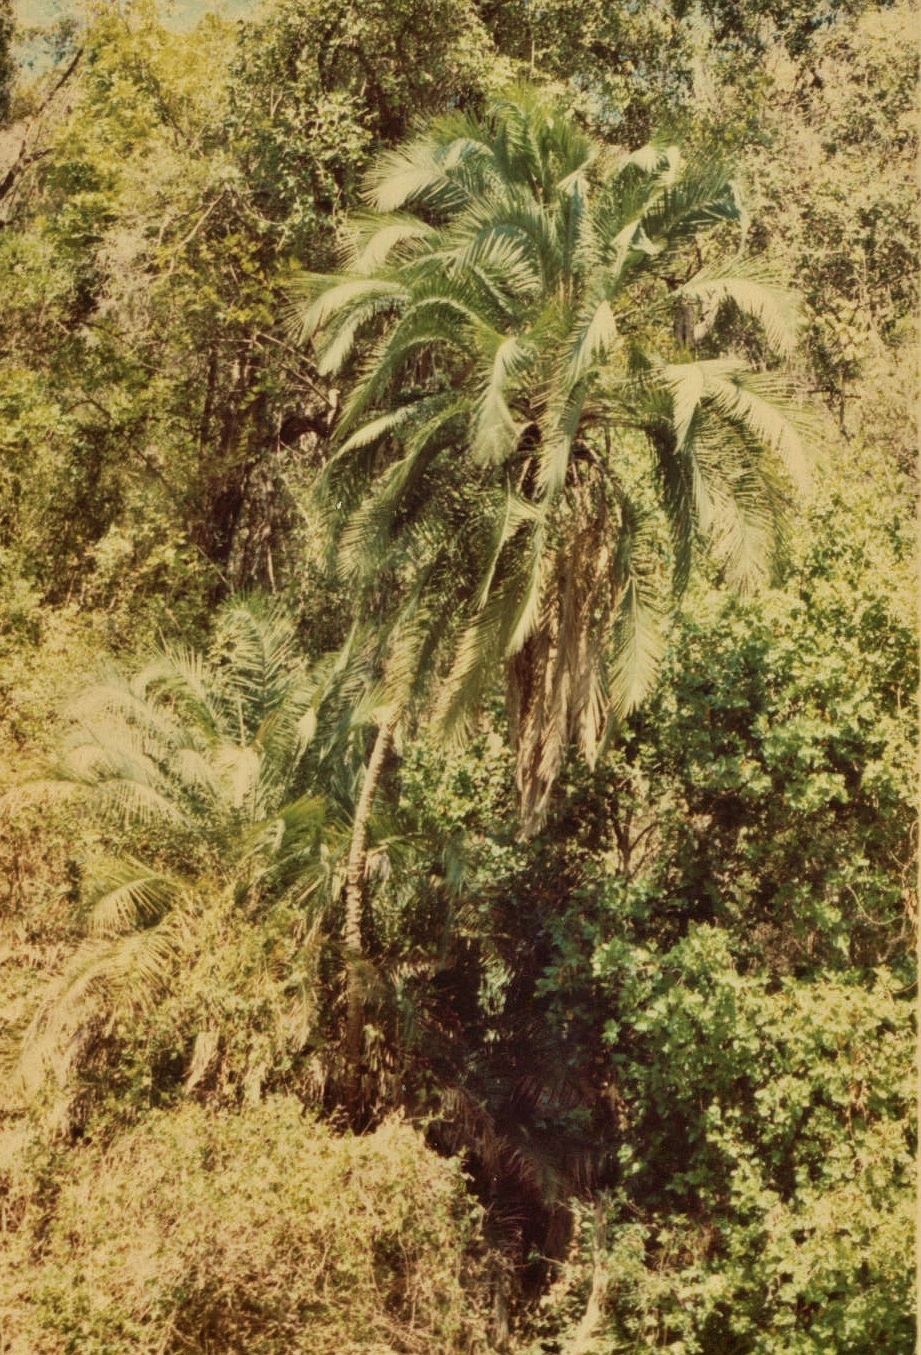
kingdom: Plantae
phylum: Tracheophyta
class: Liliopsida
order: Arecales
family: Arecaceae
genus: Phoenix
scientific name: Phoenix reclinata
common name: Senegal date palm
